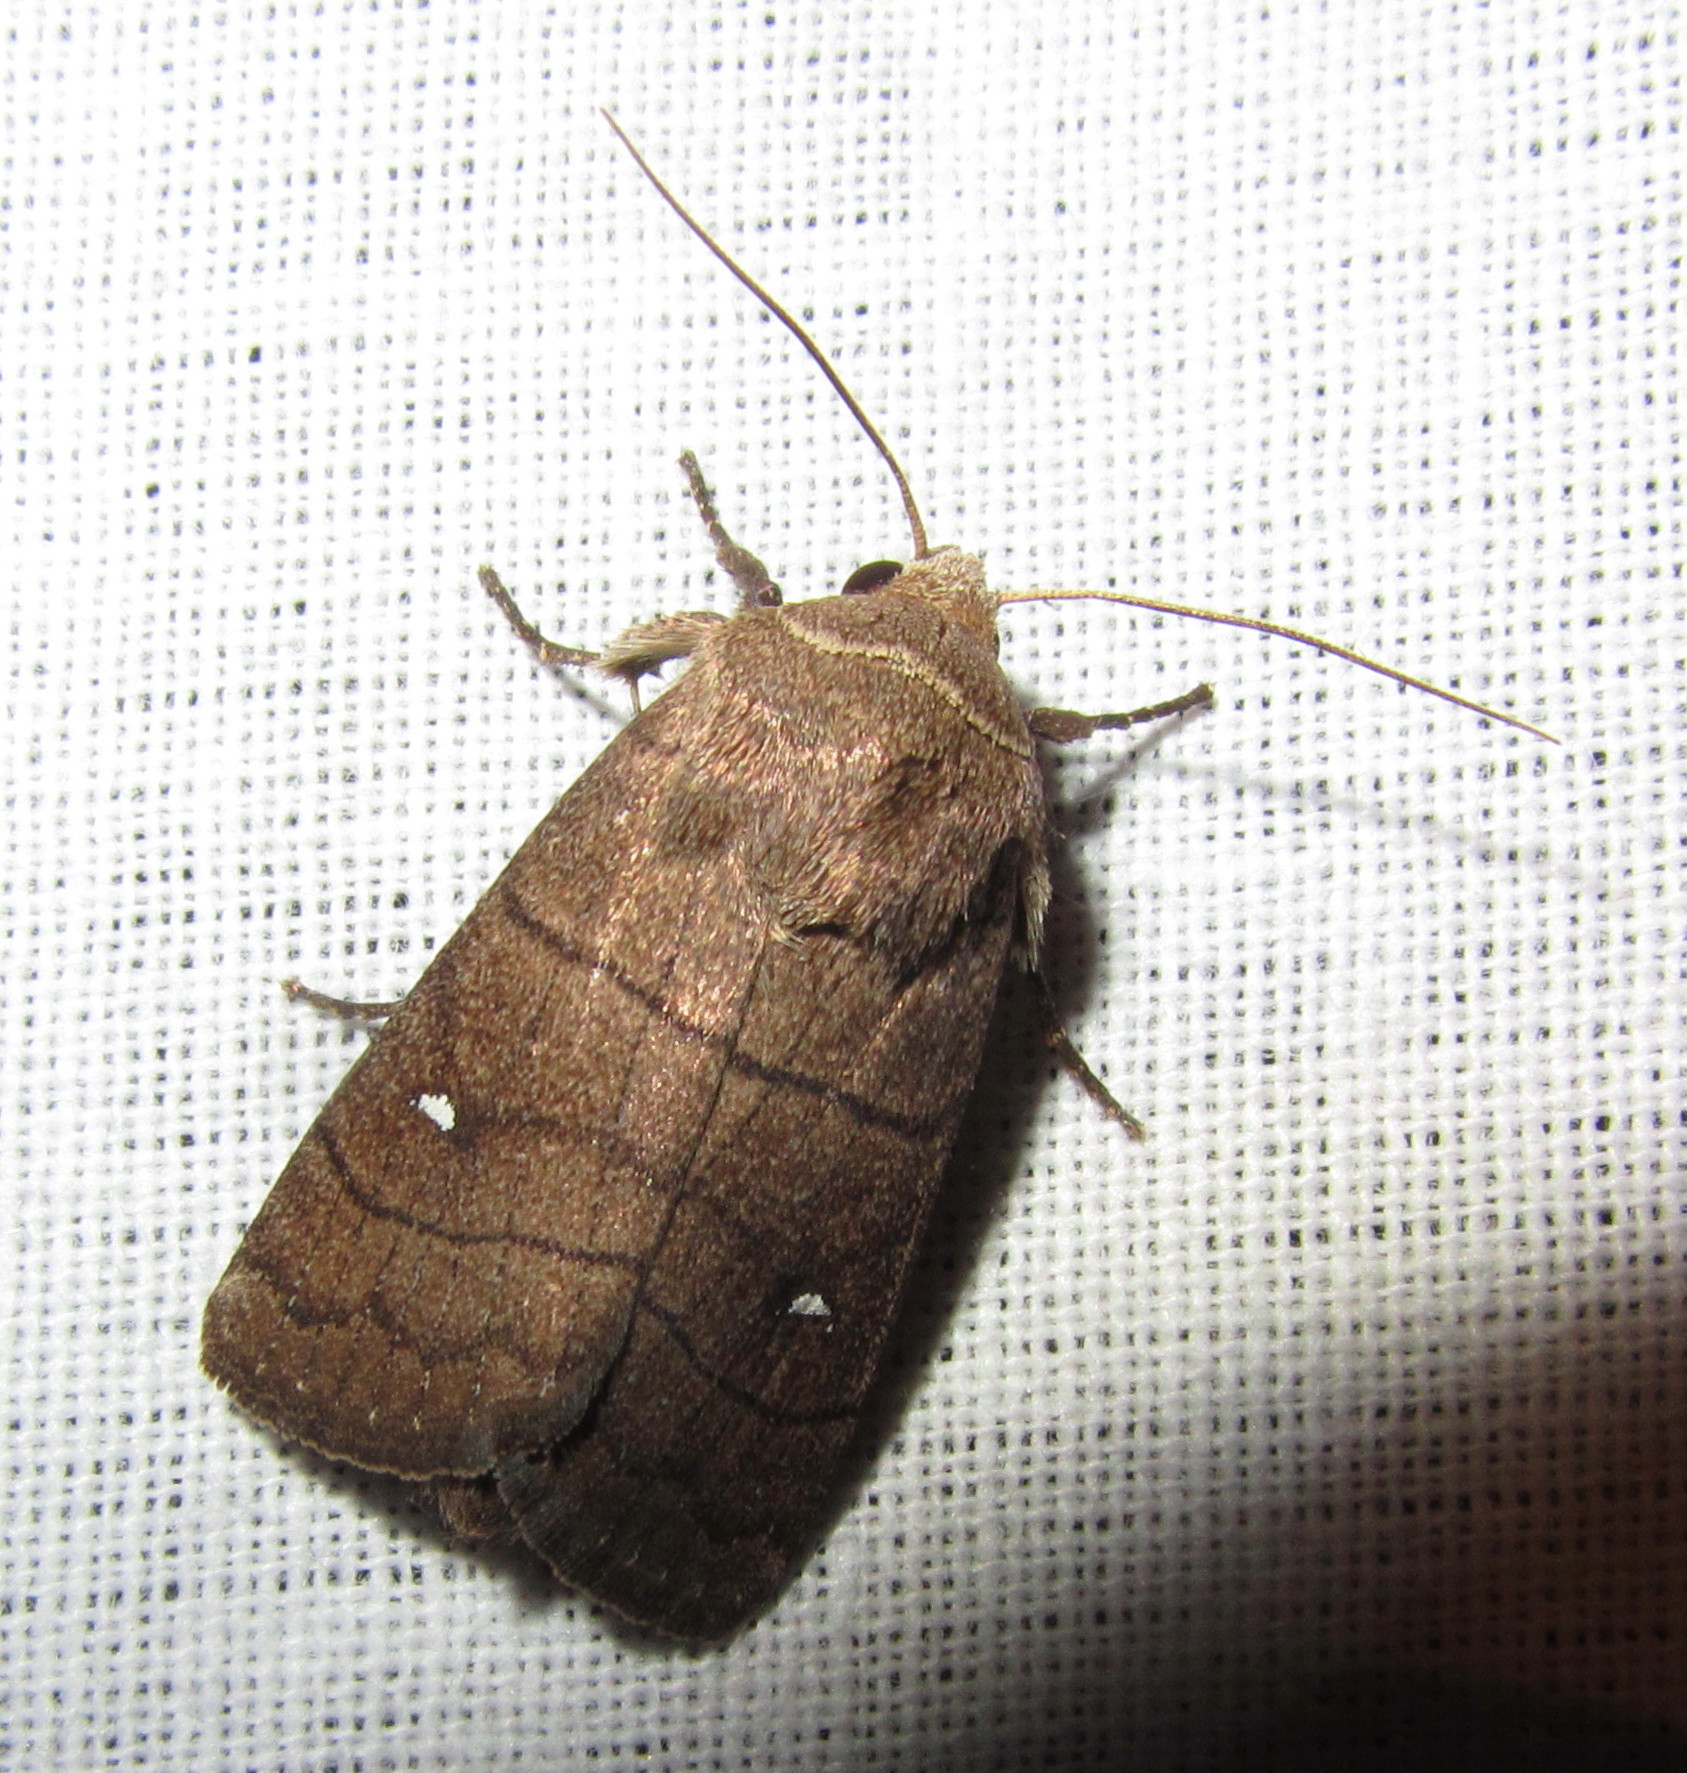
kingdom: Animalia
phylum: Arthropoda
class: Insecta
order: Lepidoptera
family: Noctuidae
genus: Proxenus
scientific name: Proxenus
